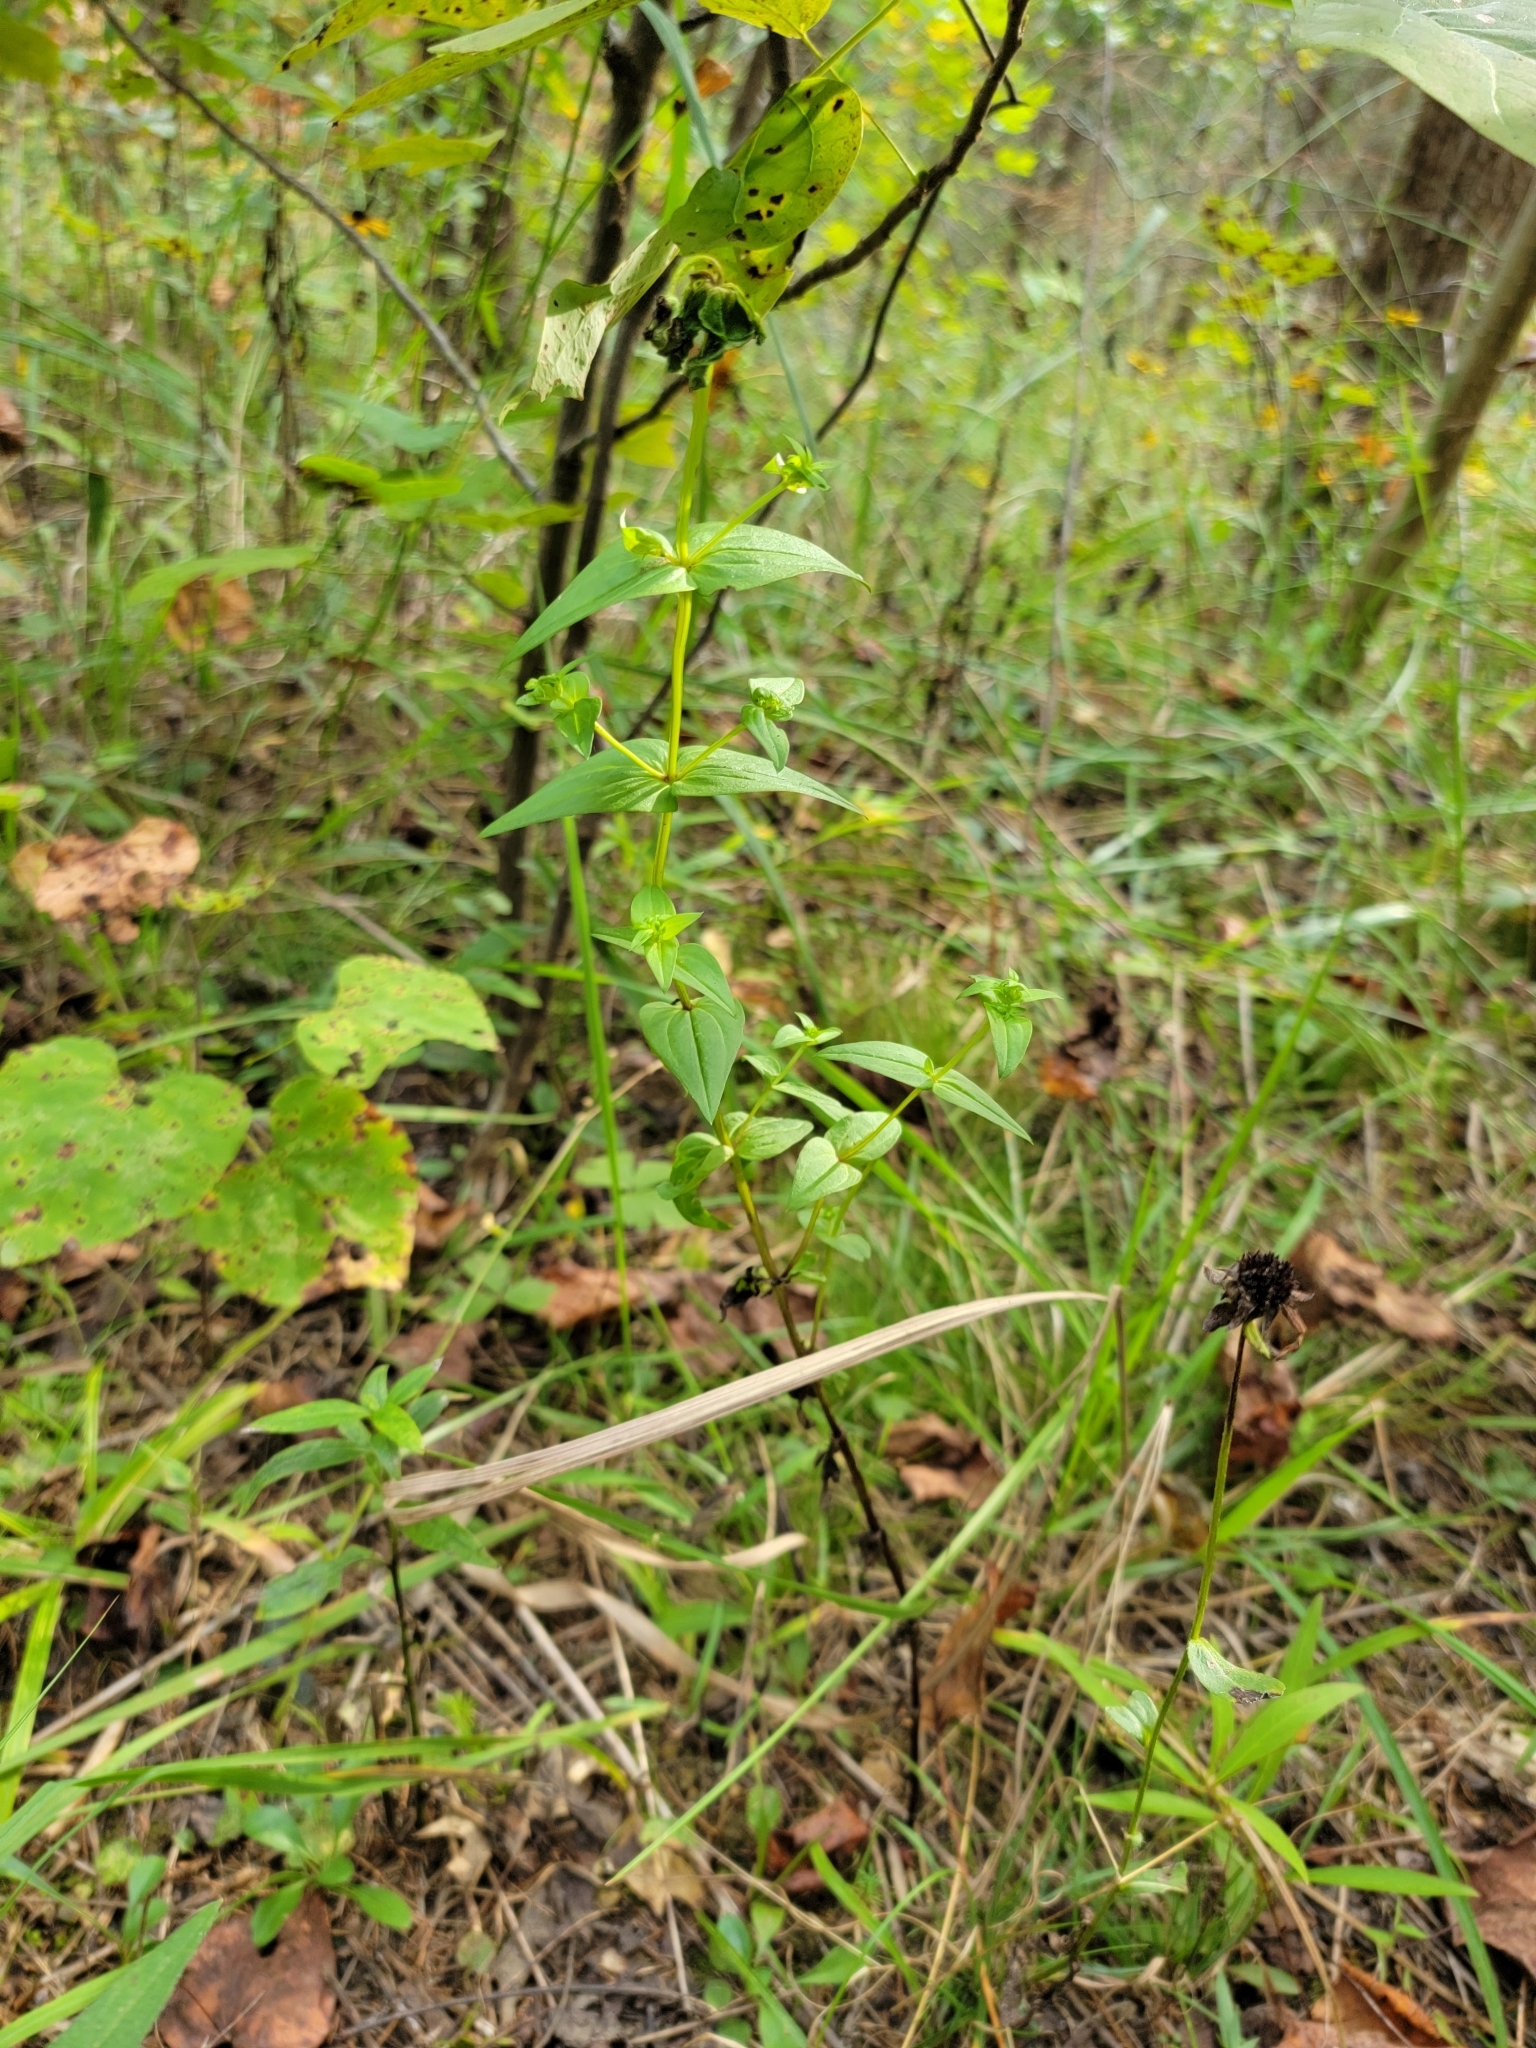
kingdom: Plantae
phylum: Tracheophyta
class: Magnoliopsida
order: Gentianales
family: Gentianaceae
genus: Gentianella
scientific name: Gentianella quinquefolia
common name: Agueweed
